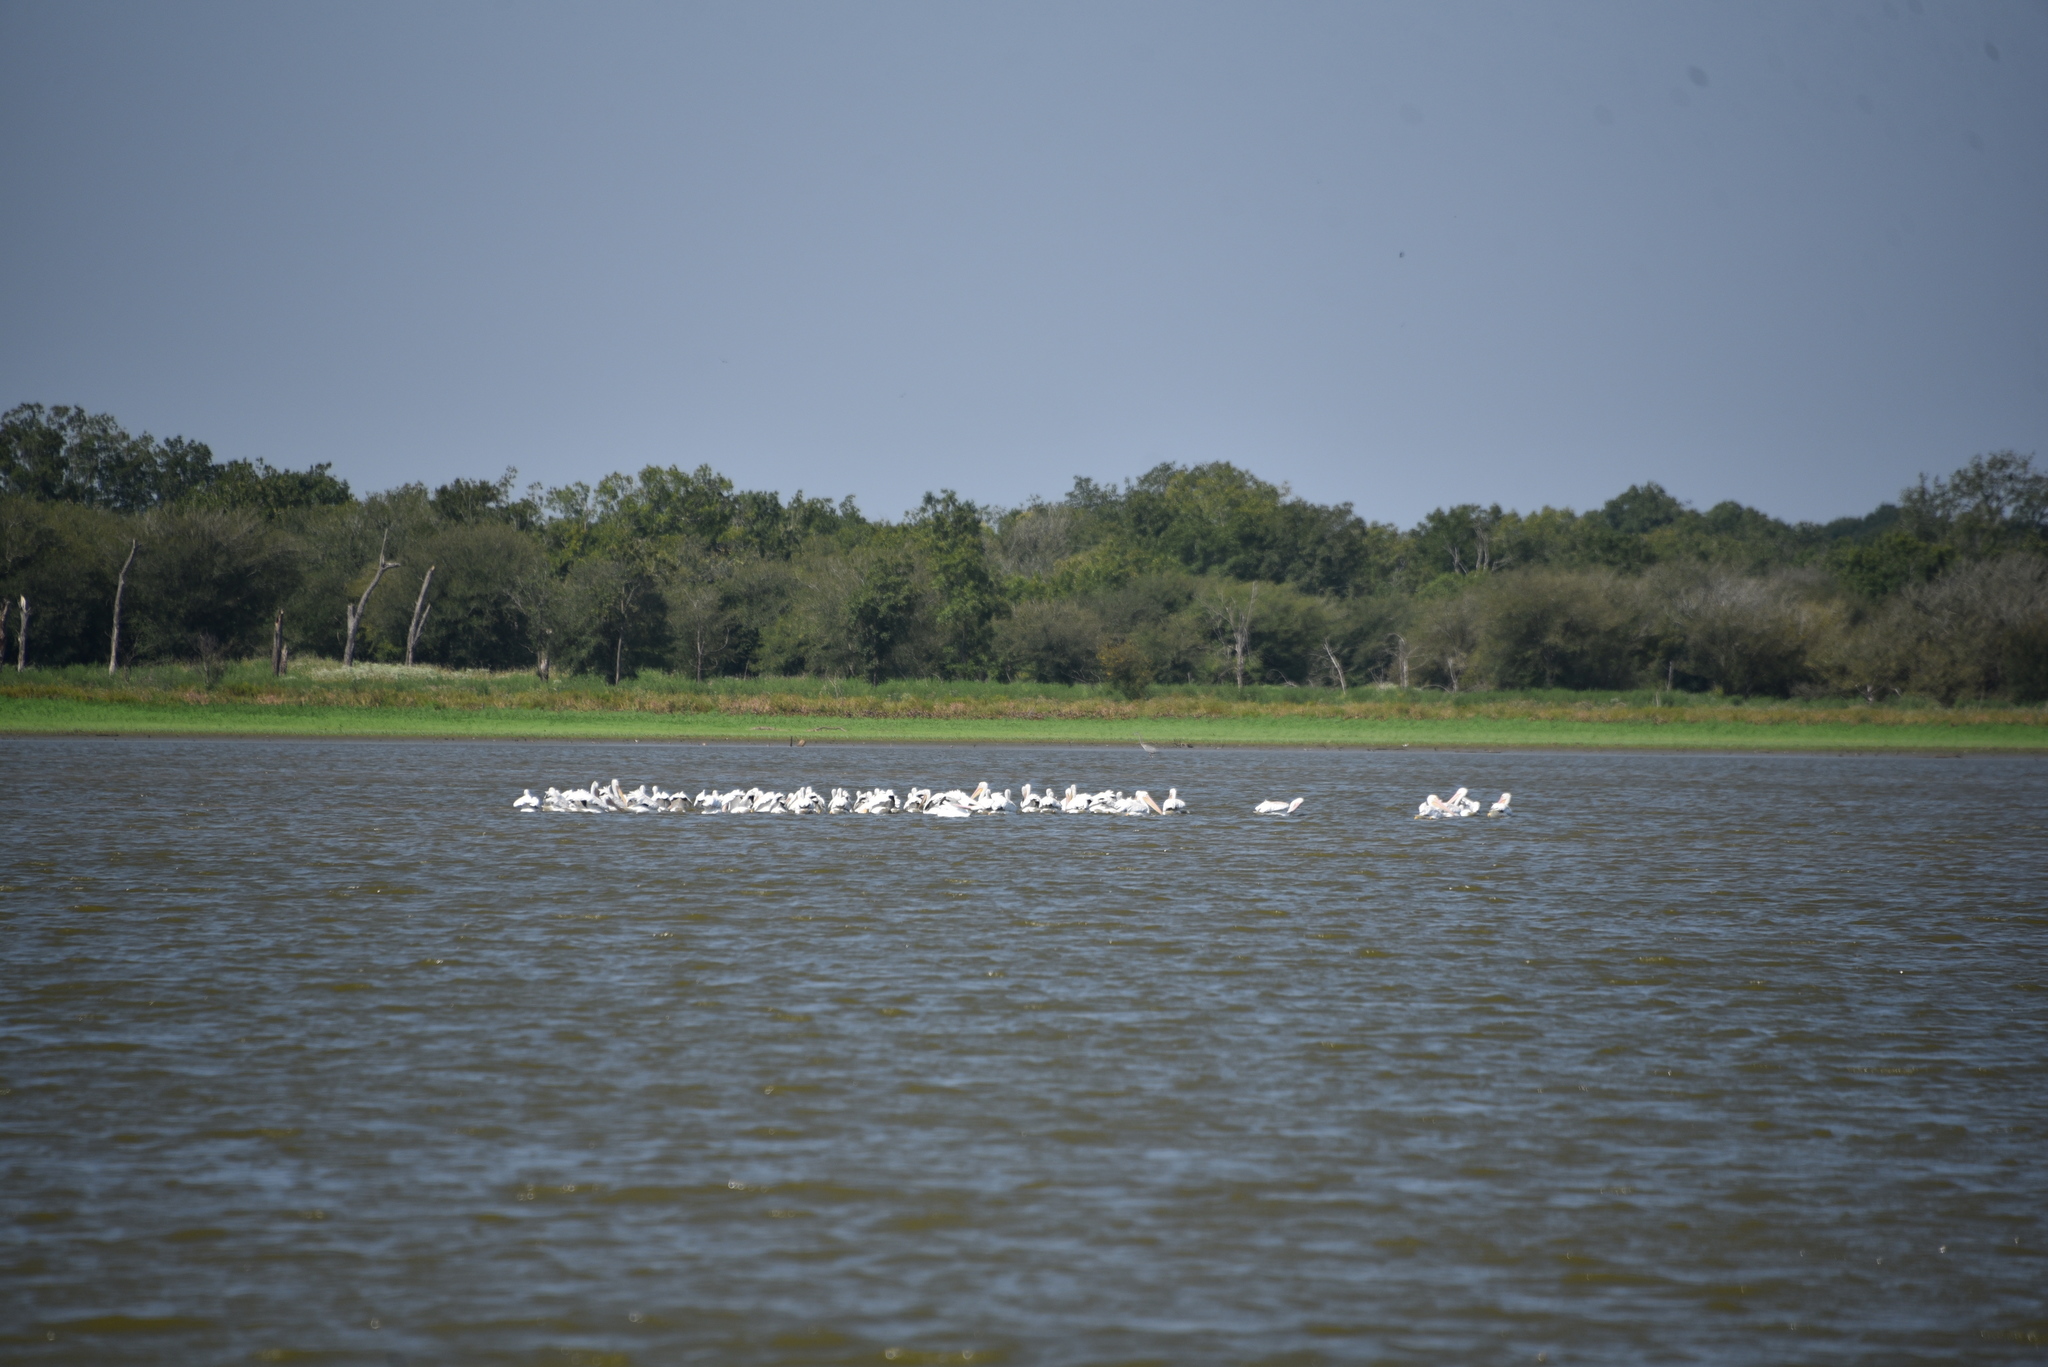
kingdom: Animalia
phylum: Chordata
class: Aves
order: Pelecaniformes
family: Pelecanidae
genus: Pelecanus
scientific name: Pelecanus erythrorhynchos
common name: American white pelican
